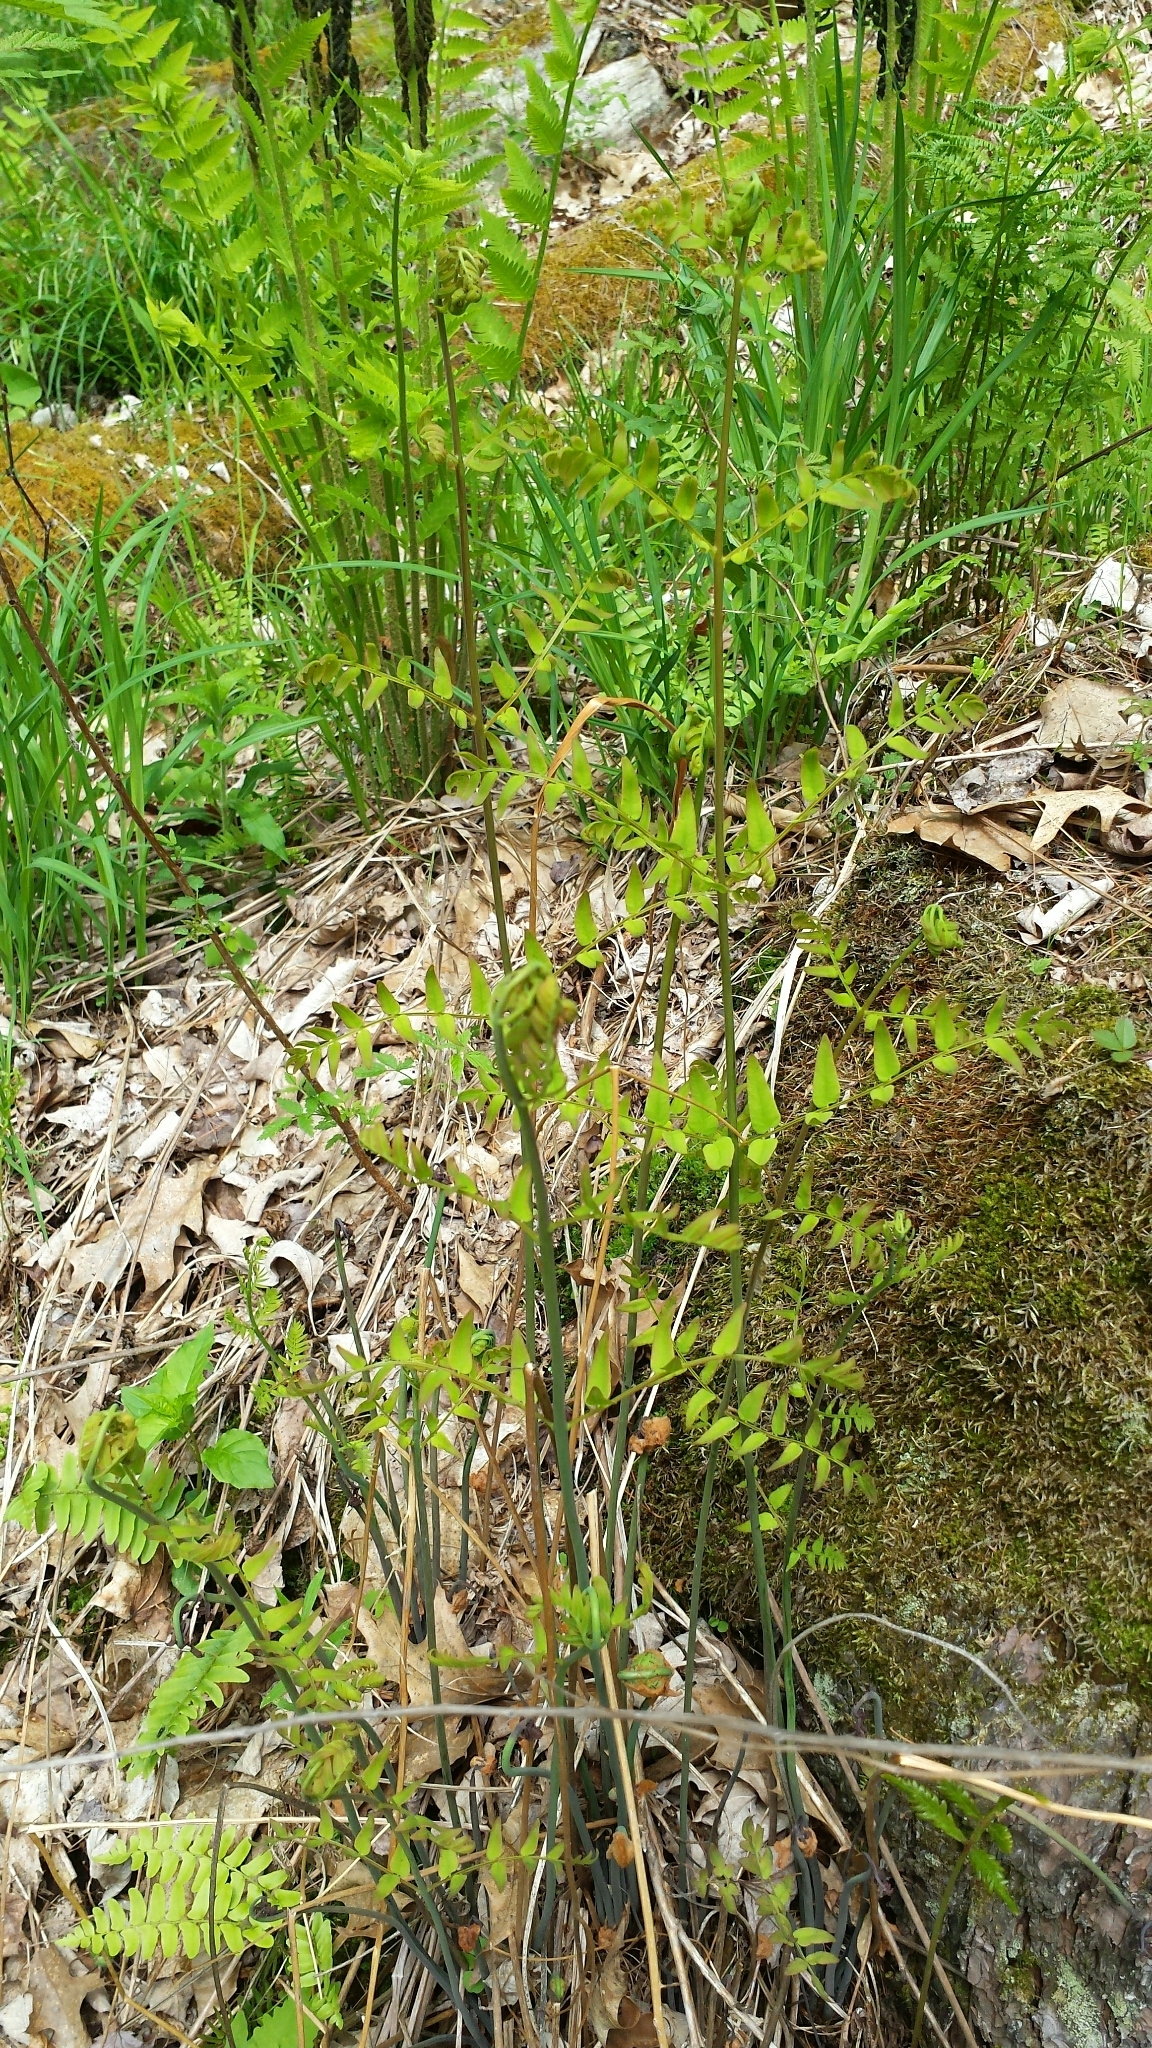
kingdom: Plantae
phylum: Tracheophyta
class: Polypodiopsida
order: Osmundales
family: Osmundaceae
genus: Osmunda
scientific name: Osmunda spectabilis
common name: American royal fern
